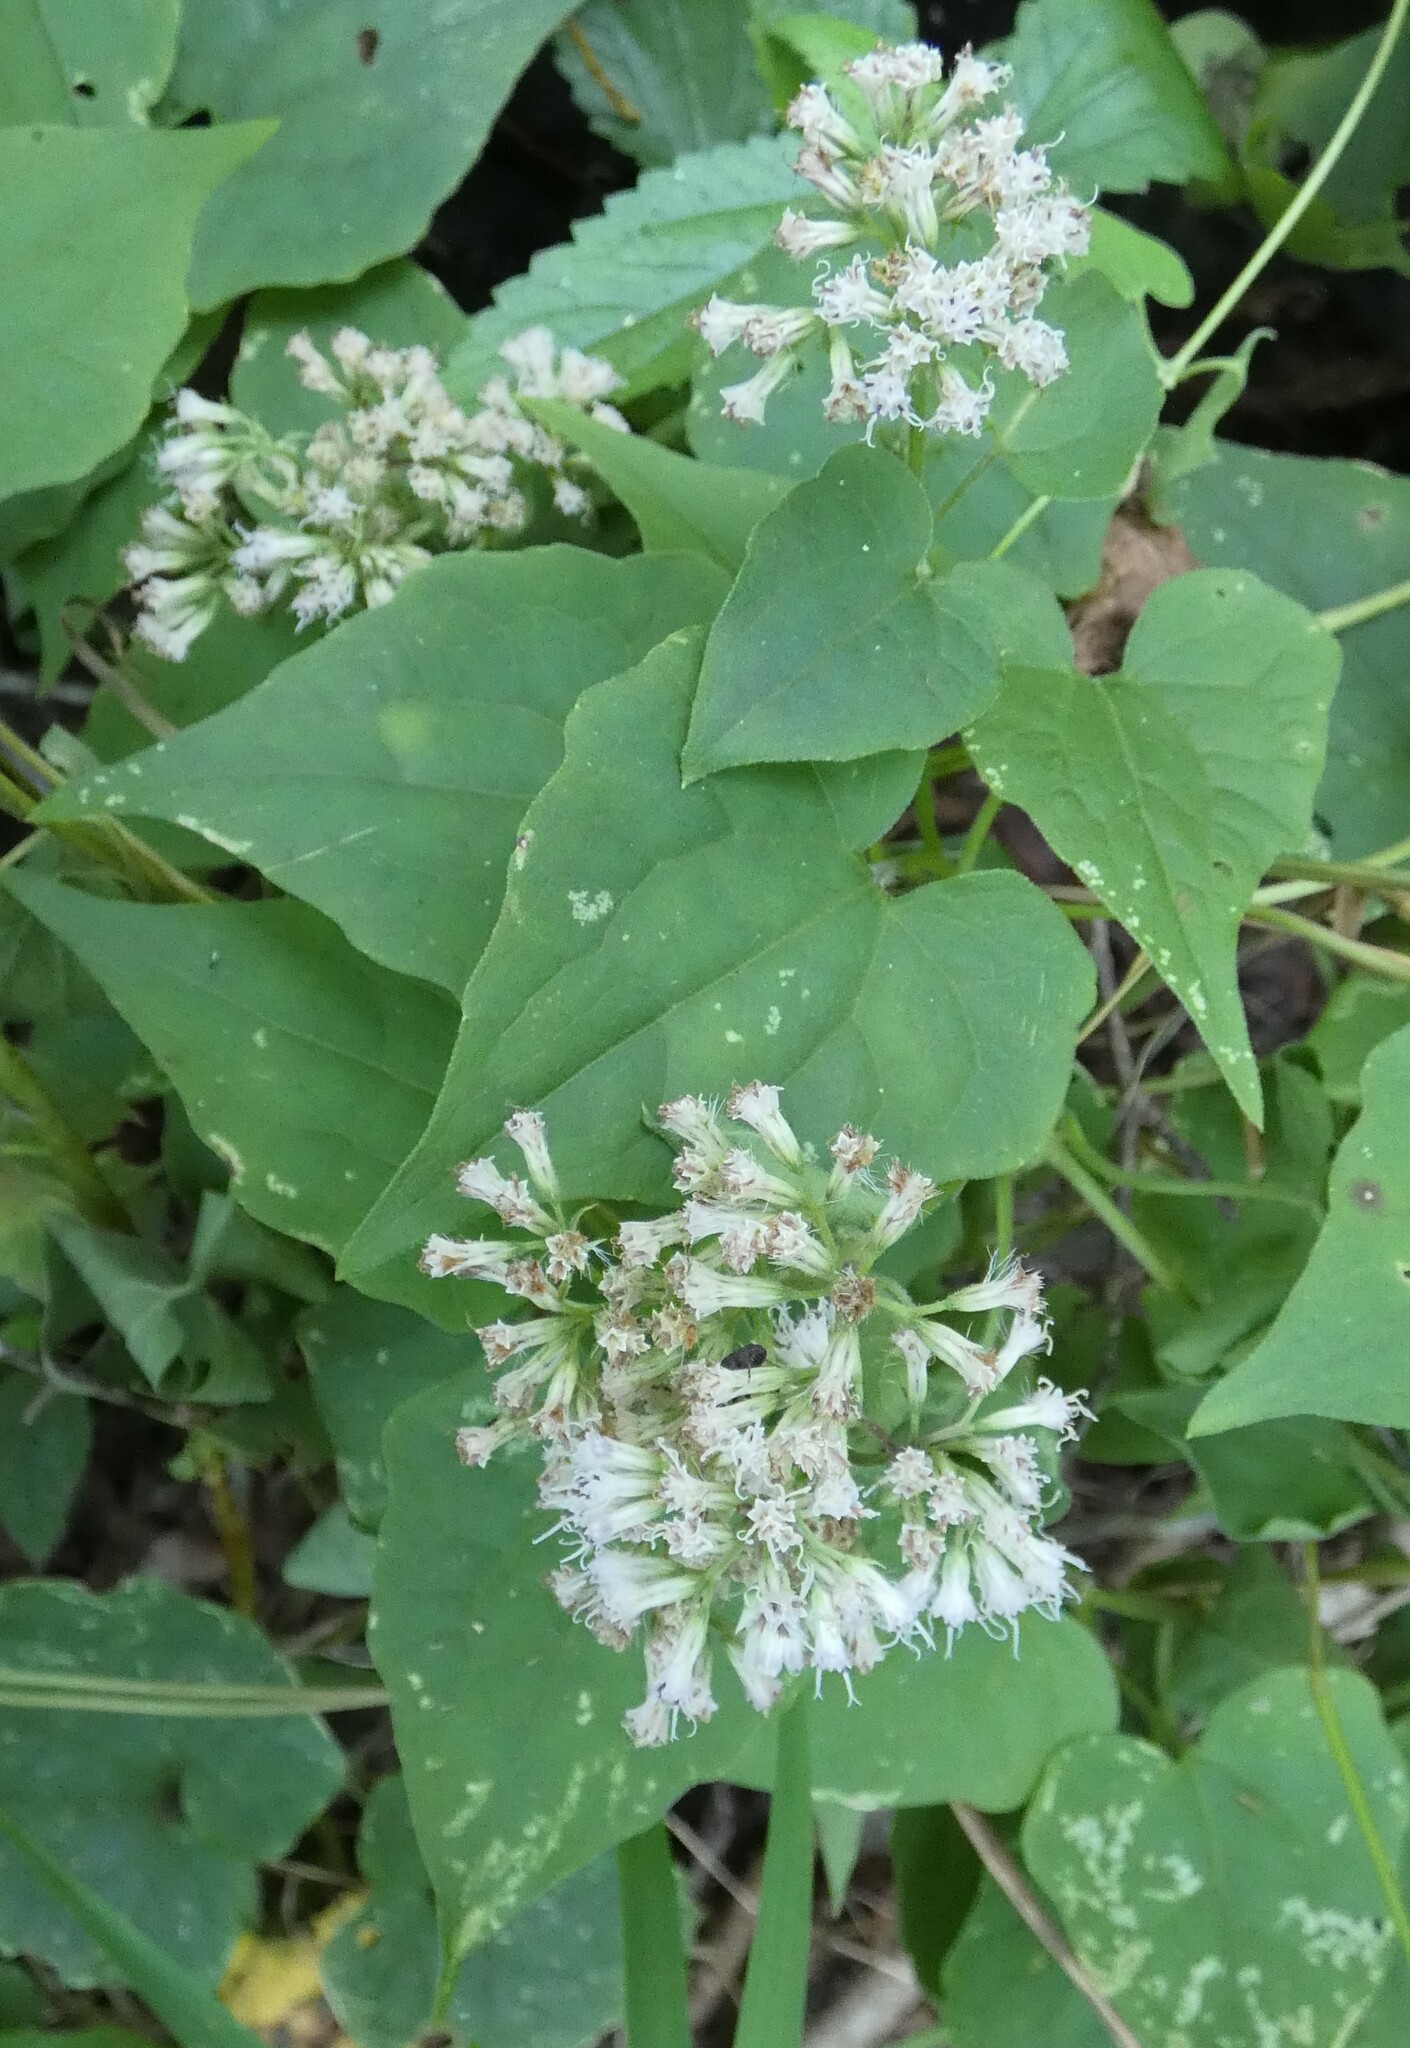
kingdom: Plantae
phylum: Tracheophyta
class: Magnoliopsida
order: Asterales
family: Asteraceae
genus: Mikania
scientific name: Mikania scandens
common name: Climbing hempvine
